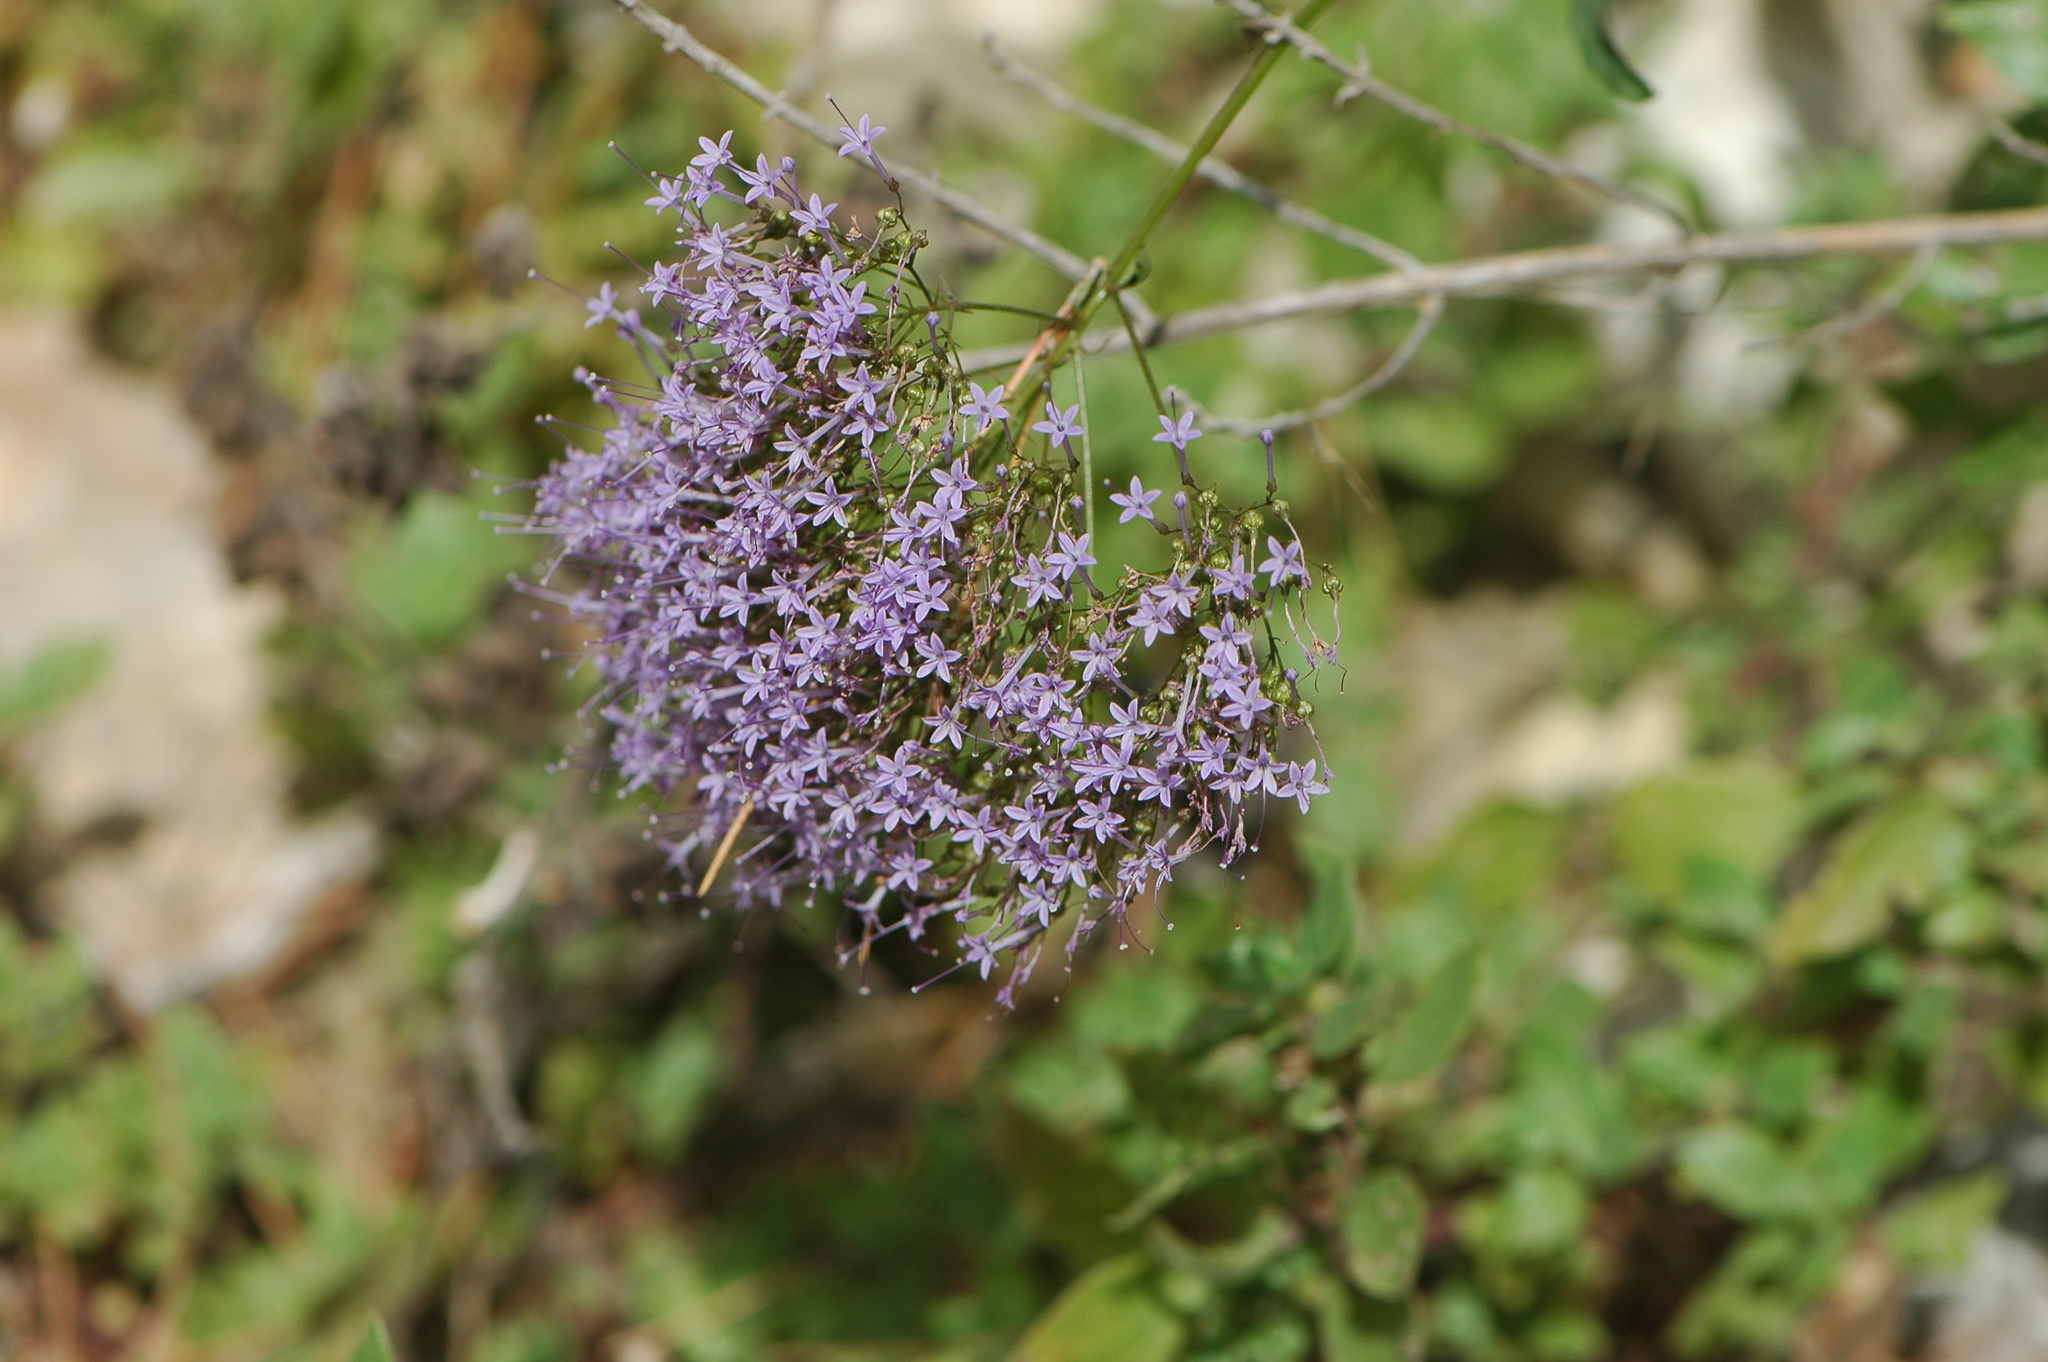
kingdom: Plantae
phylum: Tracheophyta
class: Magnoliopsida
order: Asterales
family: Campanulaceae
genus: Trachelium
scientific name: Trachelium caeruleum
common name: Throatwort
